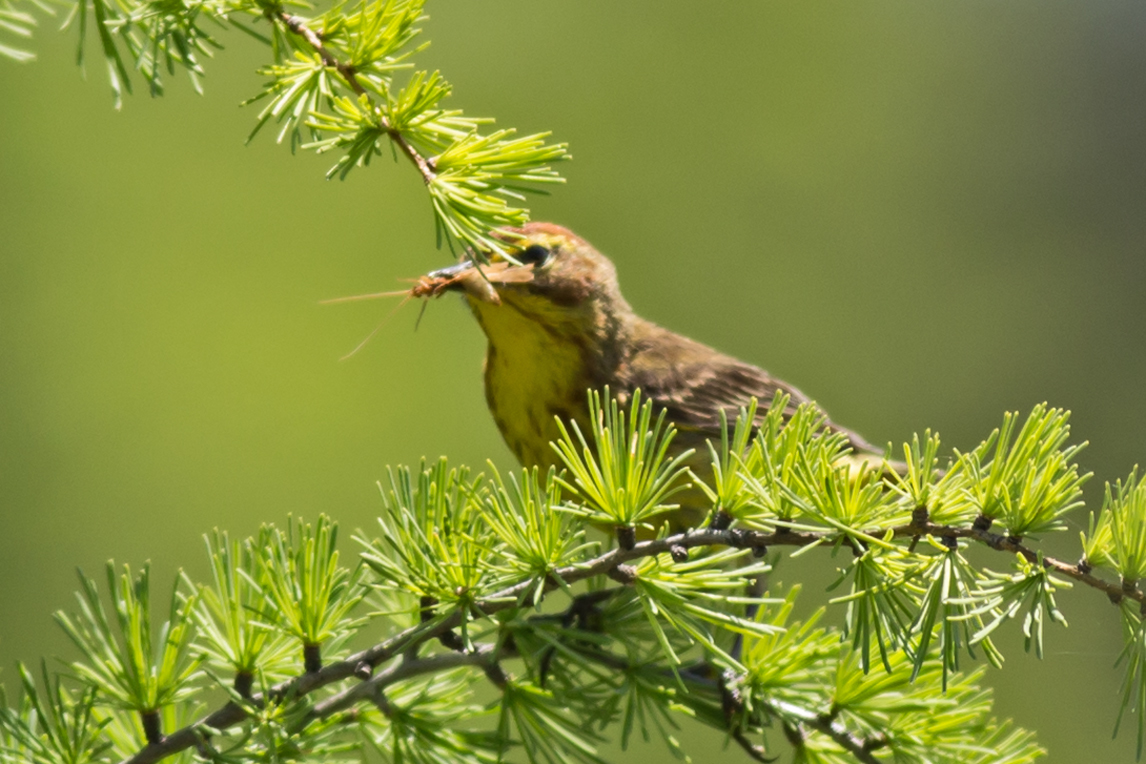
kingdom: Animalia
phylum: Chordata
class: Aves
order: Passeriformes
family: Parulidae
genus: Setophaga
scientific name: Setophaga palmarum
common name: Palm warbler
